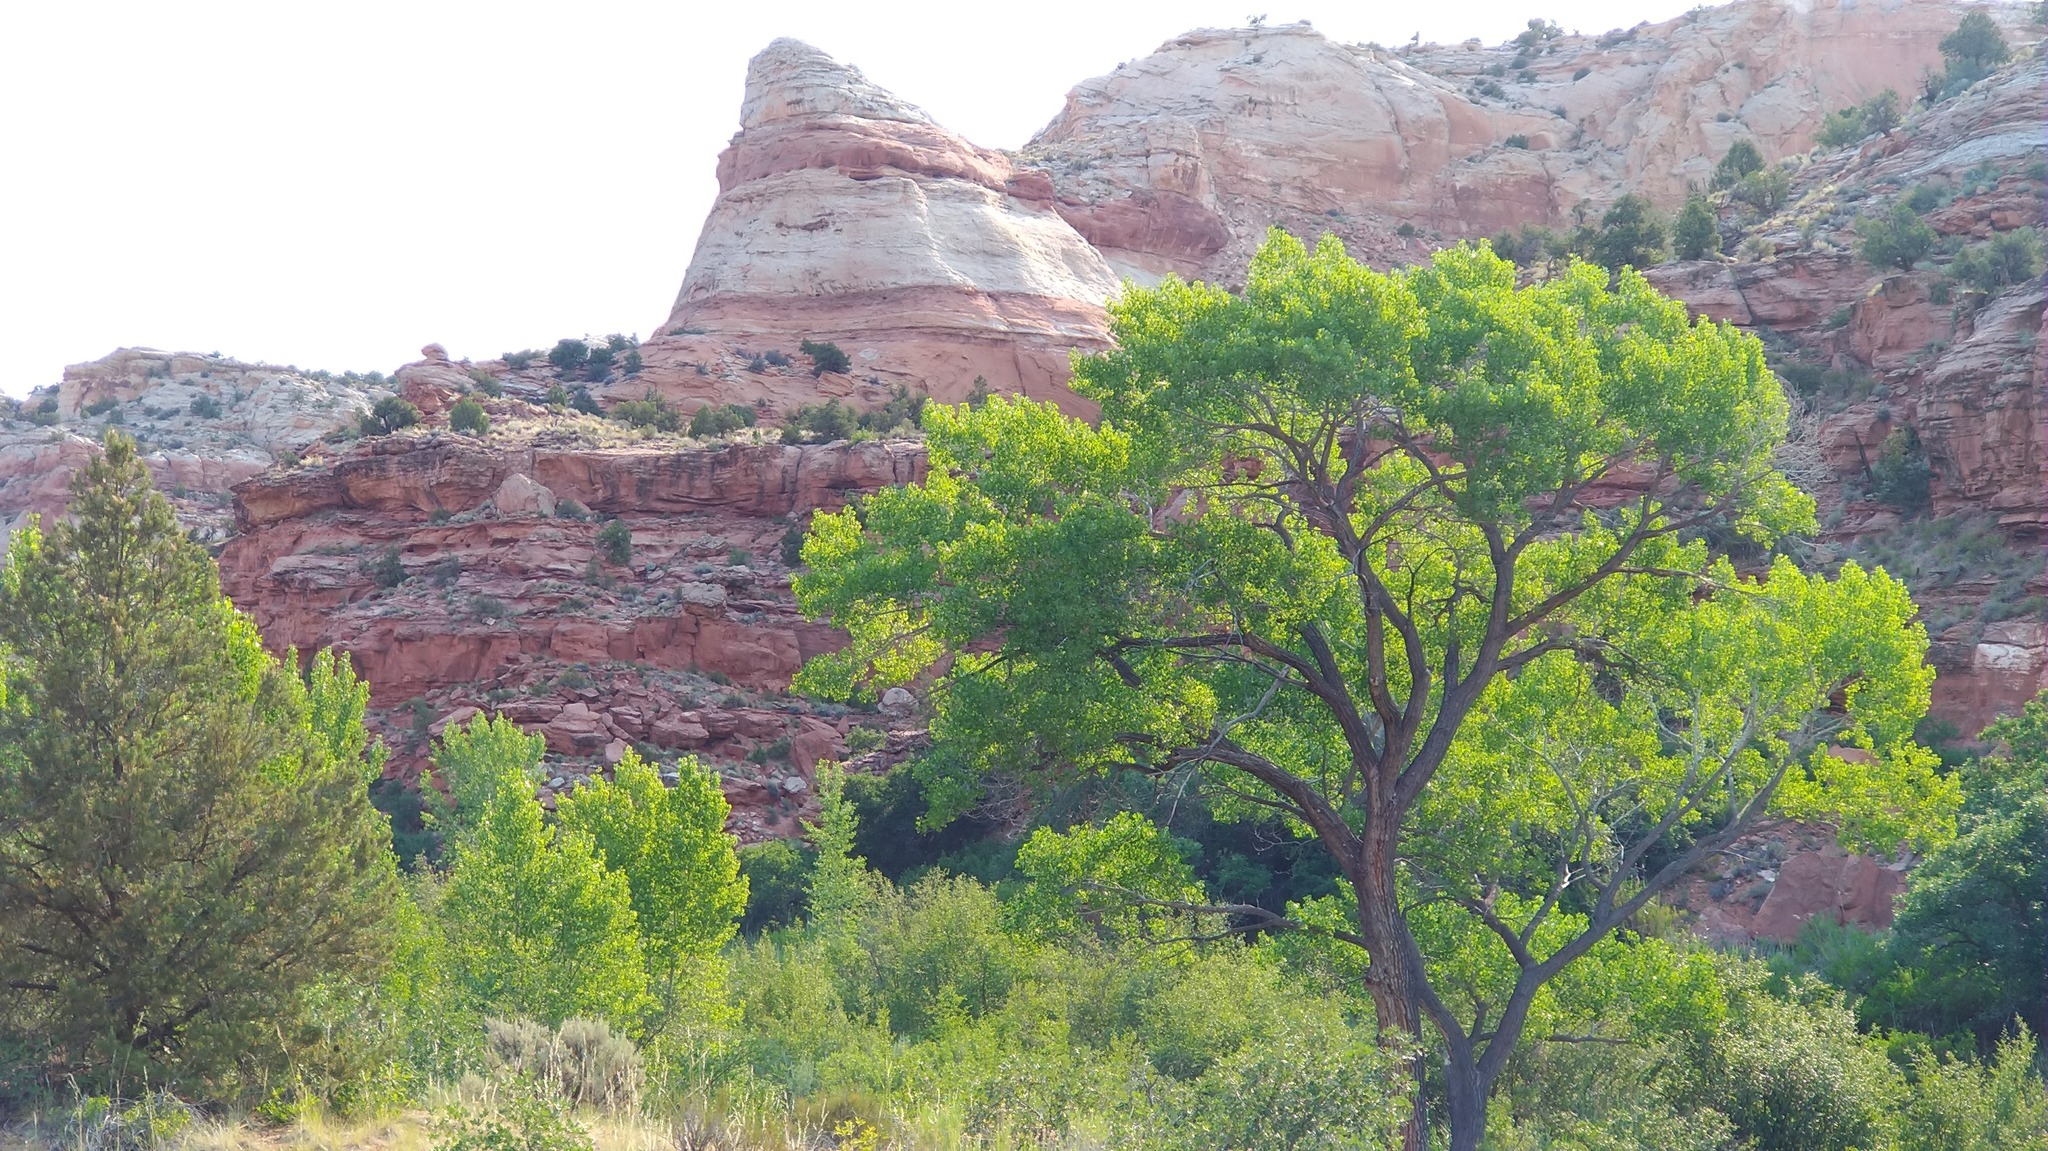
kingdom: Plantae
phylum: Tracheophyta
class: Magnoliopsida
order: Malpighiales
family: Salicaceae
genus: Populus
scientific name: Populus fremontii
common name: Fremont's cottonwood
